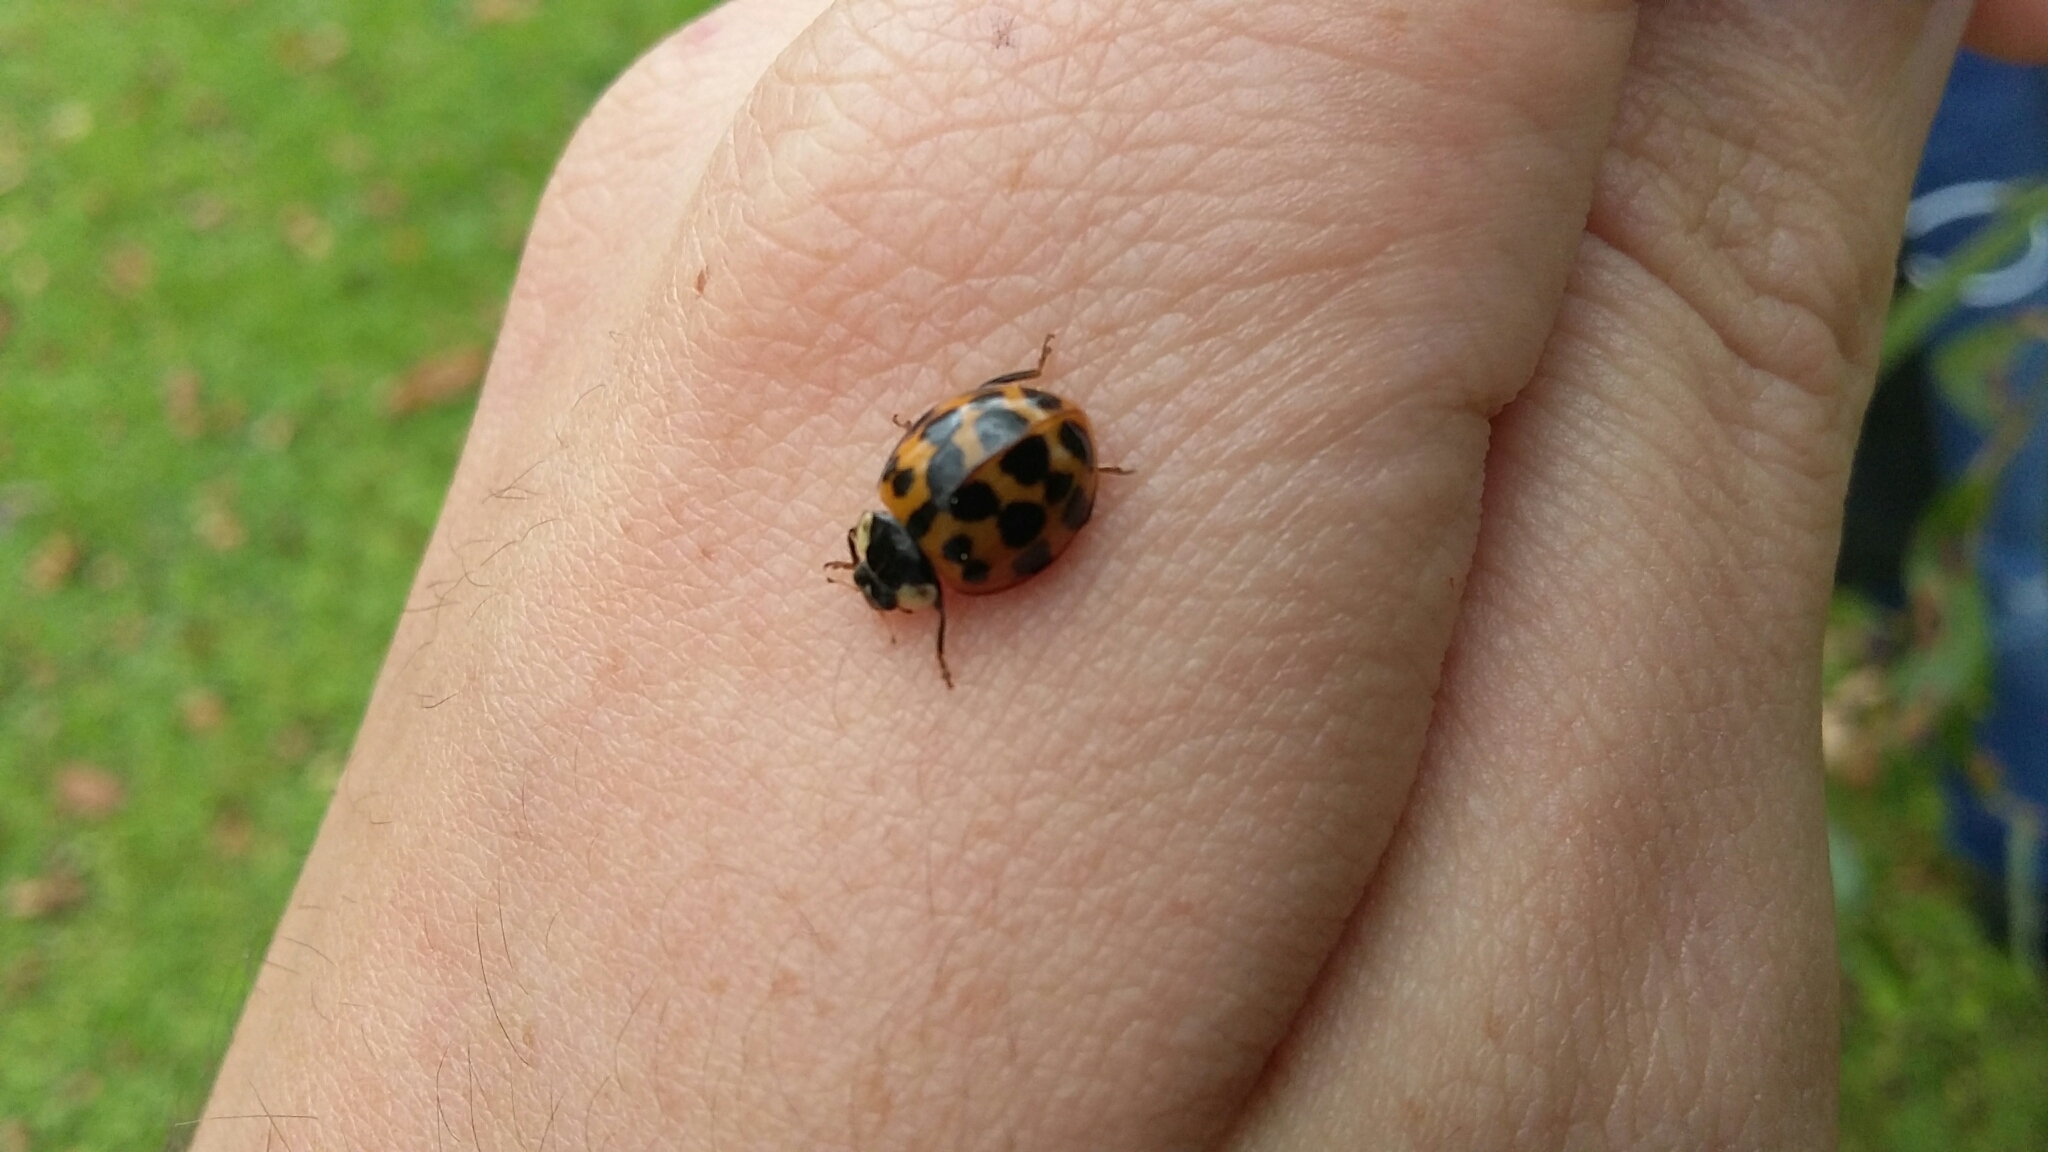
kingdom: Animalia
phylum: Arthropoda
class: Insecta
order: Coleoptera
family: Coccinellidae
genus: Harmonia
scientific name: Harmonia axyridis
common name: Harlequin ladybird
